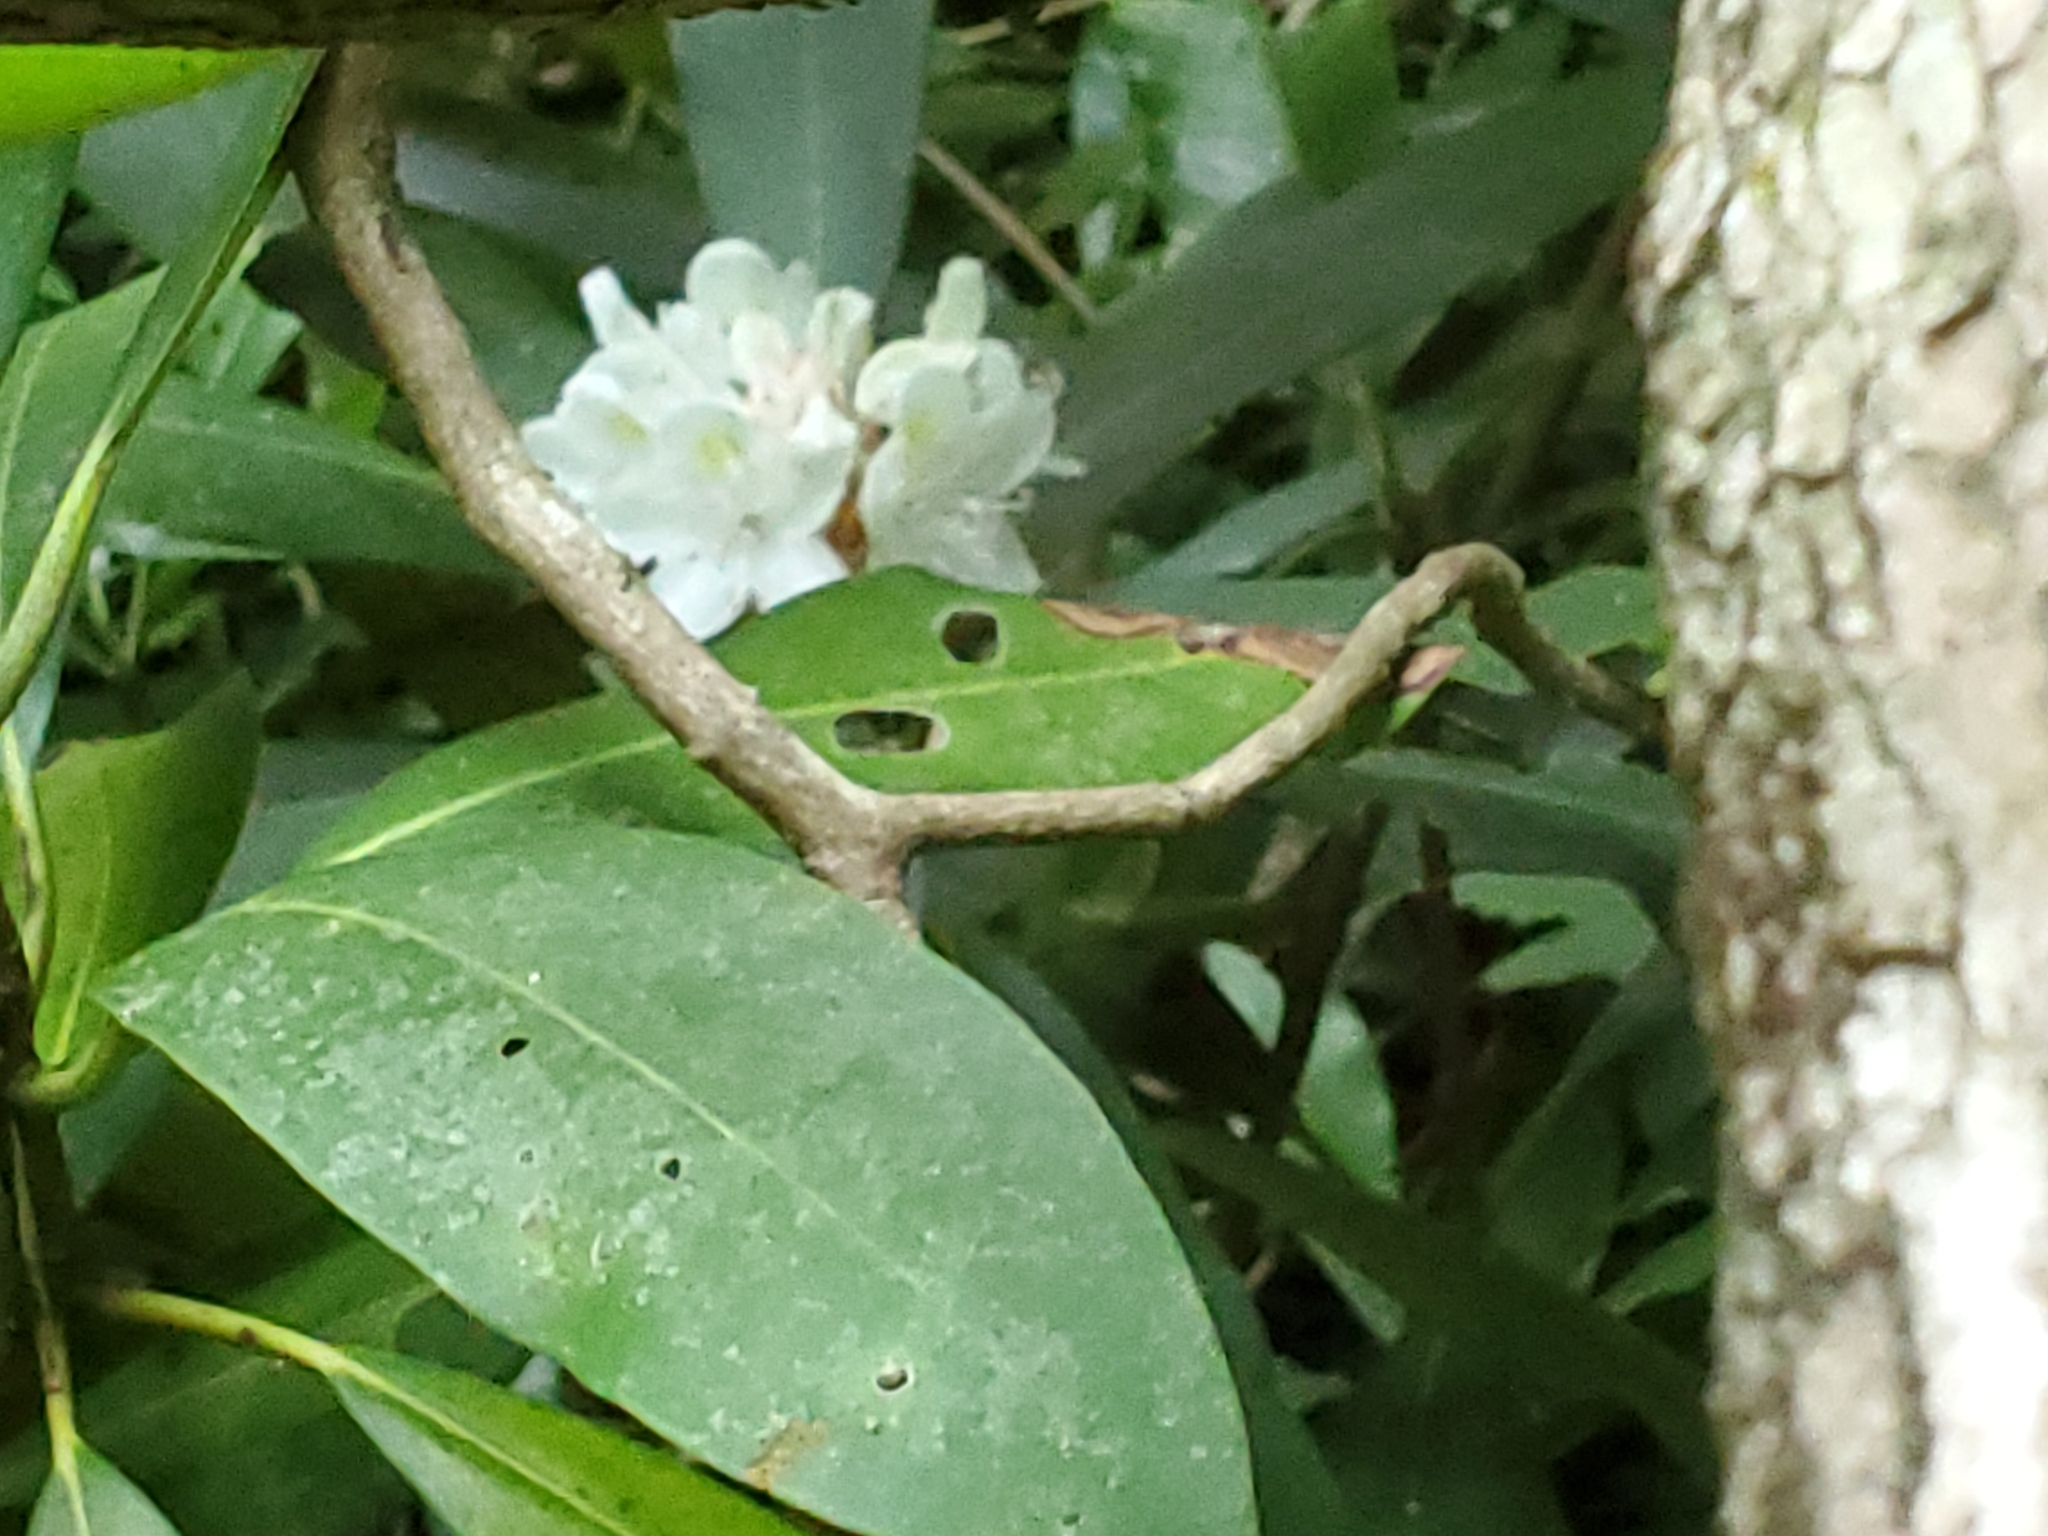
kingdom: Plantae
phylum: Tracheophyta
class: Magnoliopsida
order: Ericales
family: Ericaceae
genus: Rhododendron
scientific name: Rhododendron maximum
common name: Great rhododendron
